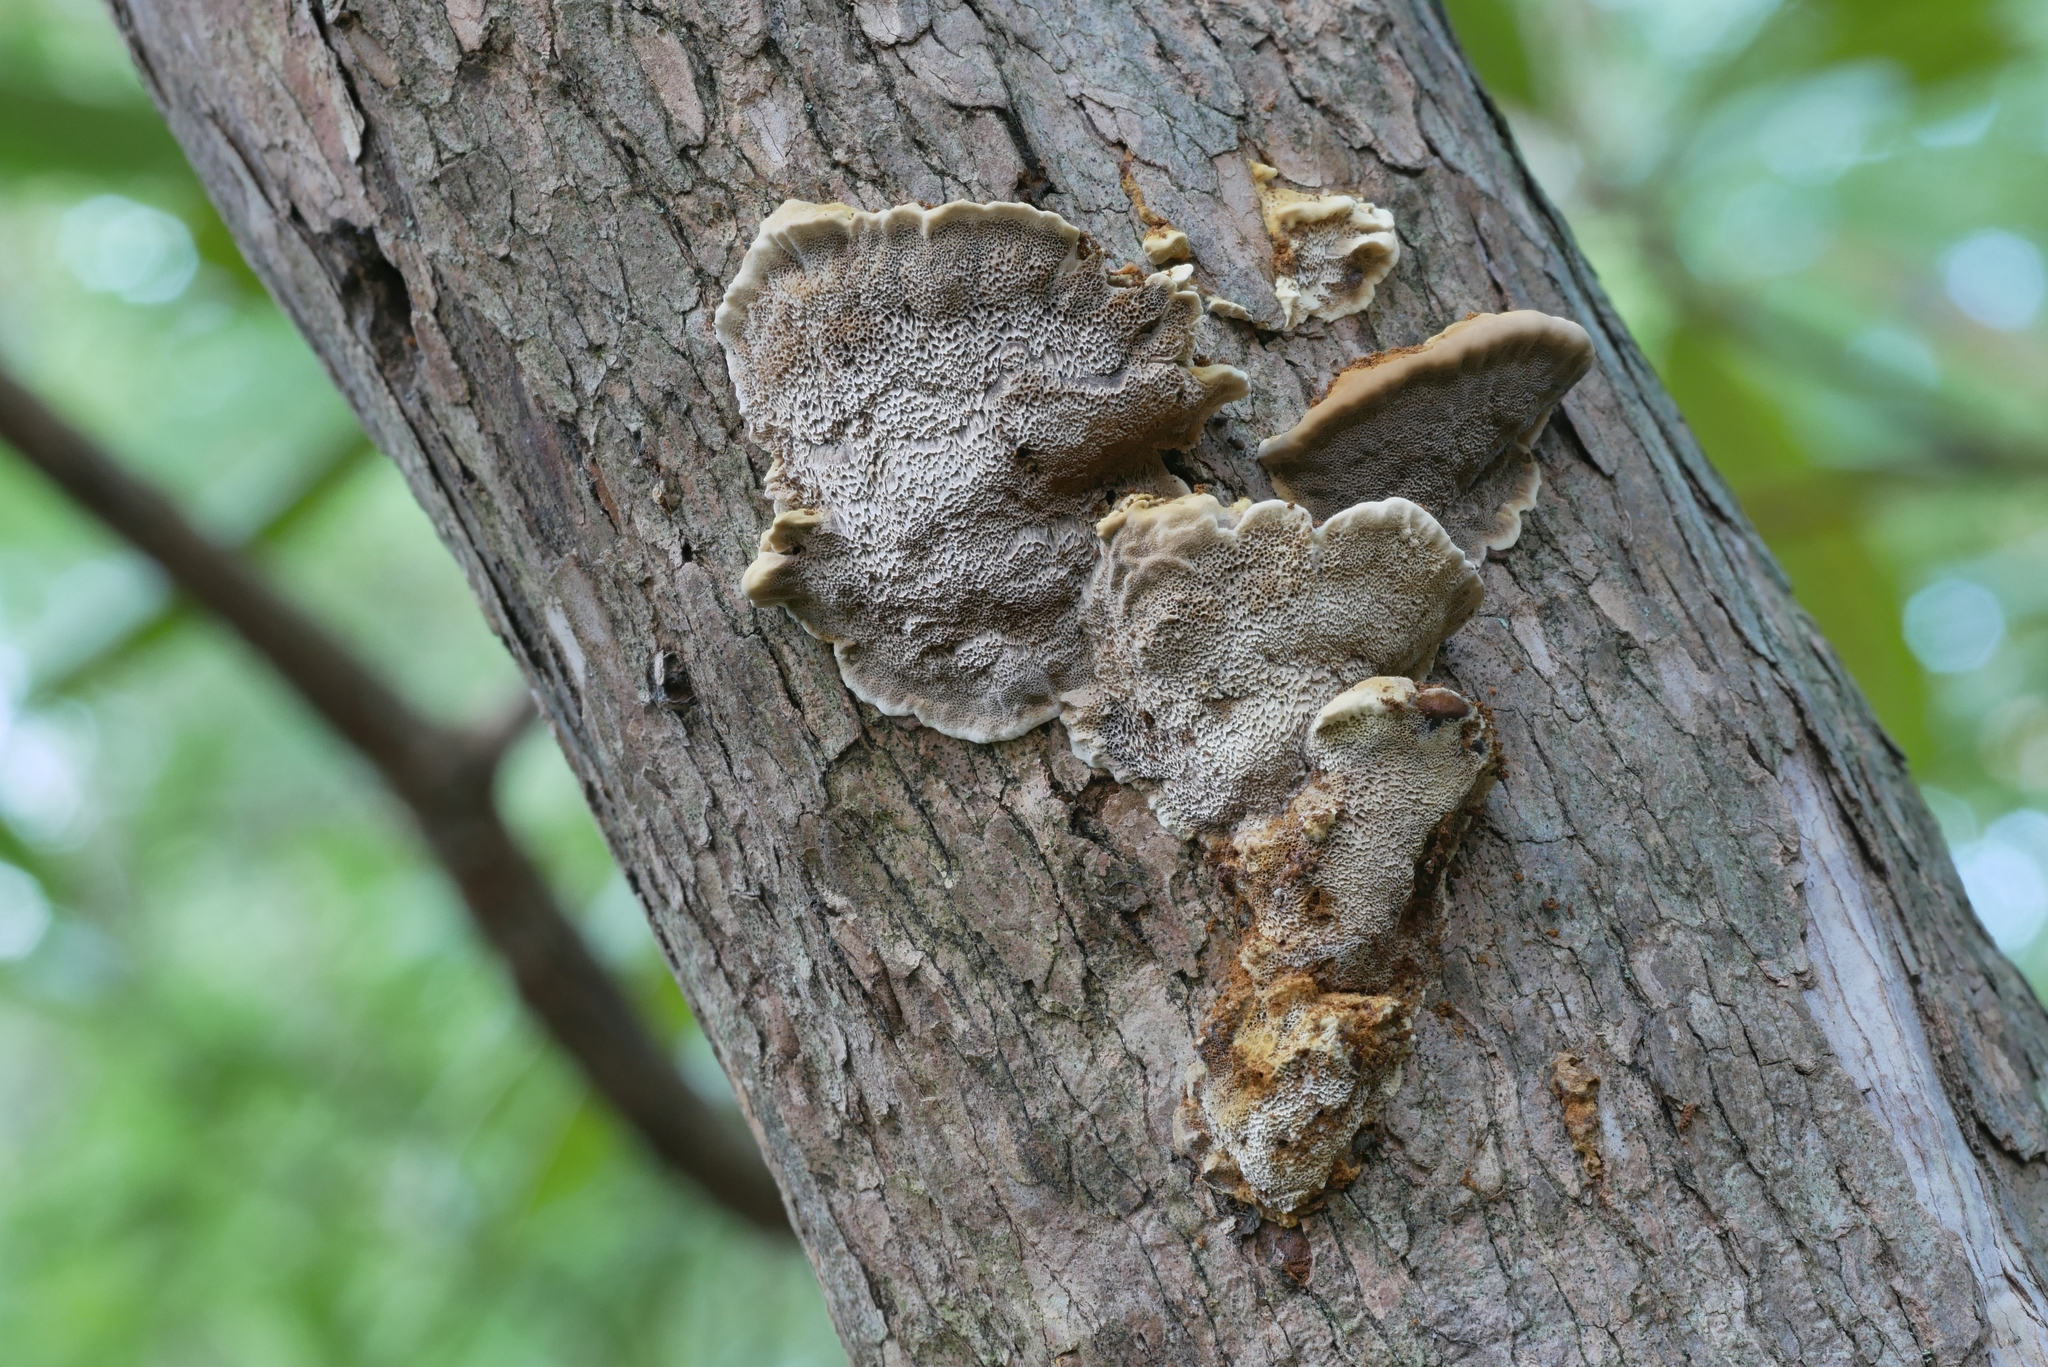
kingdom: Fungi
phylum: Basidiomycota
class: Agaricomycetes
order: Hymenochaetales
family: Hymenochaetaceae
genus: Xanthoporia
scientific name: Xanthoporia radiata
